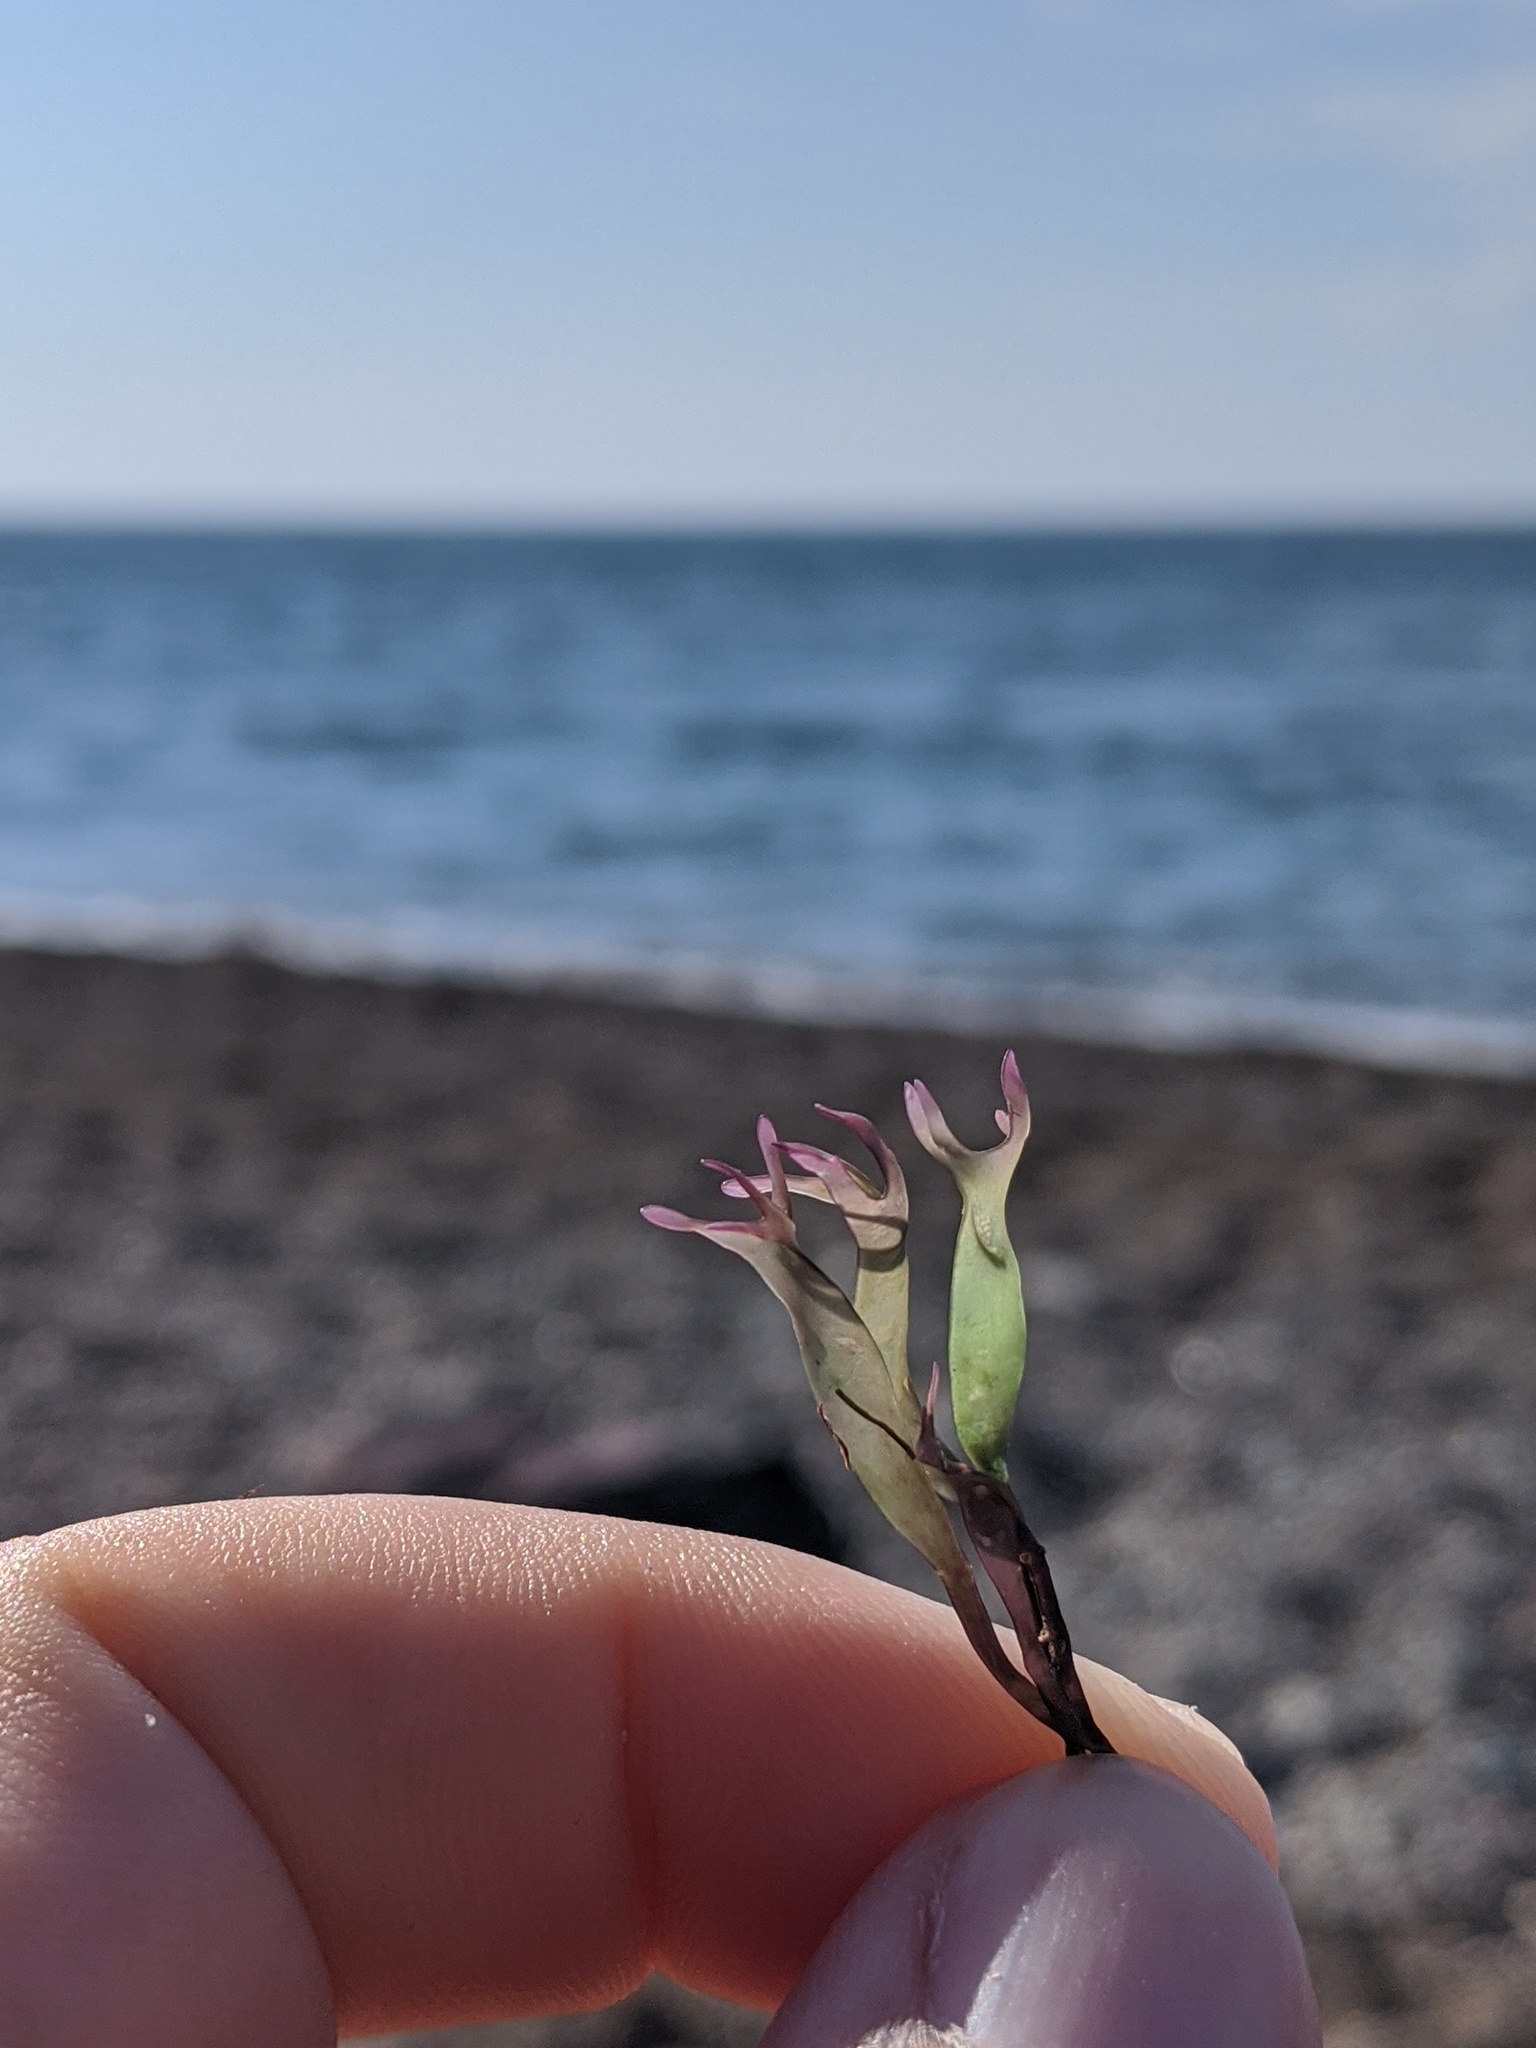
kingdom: Plantae
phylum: Rhodophyta
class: Florideophyceae
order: Gigartinales
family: Gigartinaceae
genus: Chondrus
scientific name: Chondrus crispus
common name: Carrageen
